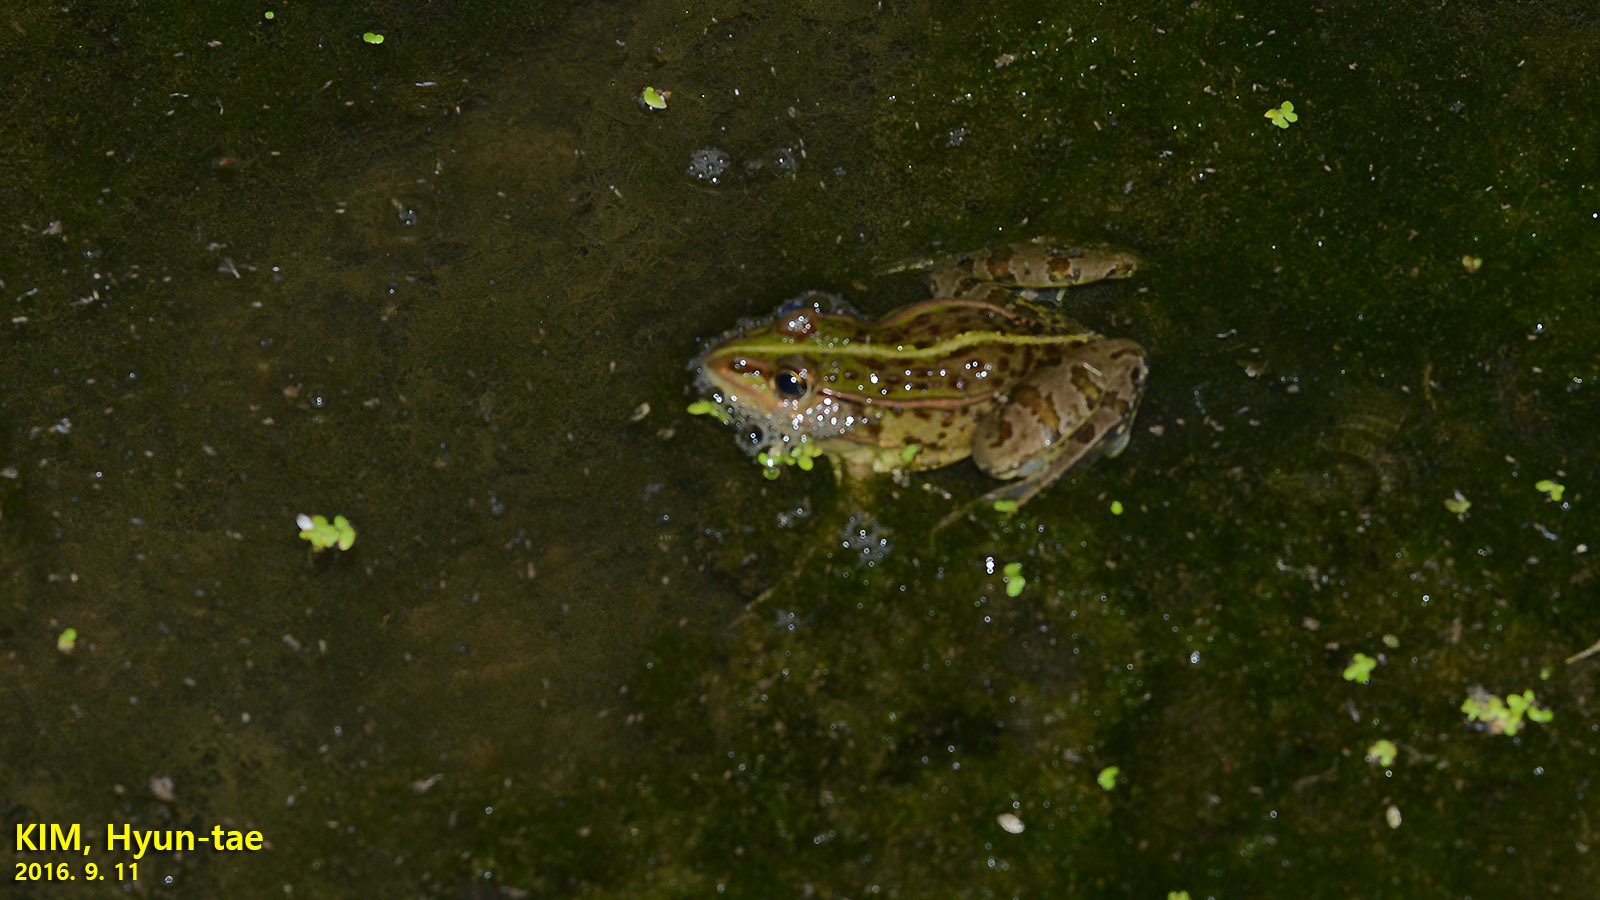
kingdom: Animalia
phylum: Chordata
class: Amphibia
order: Anura
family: Ranidae
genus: Pelophylax
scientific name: Pelophylax nigromaculatus
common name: Black-spotted pond frog
